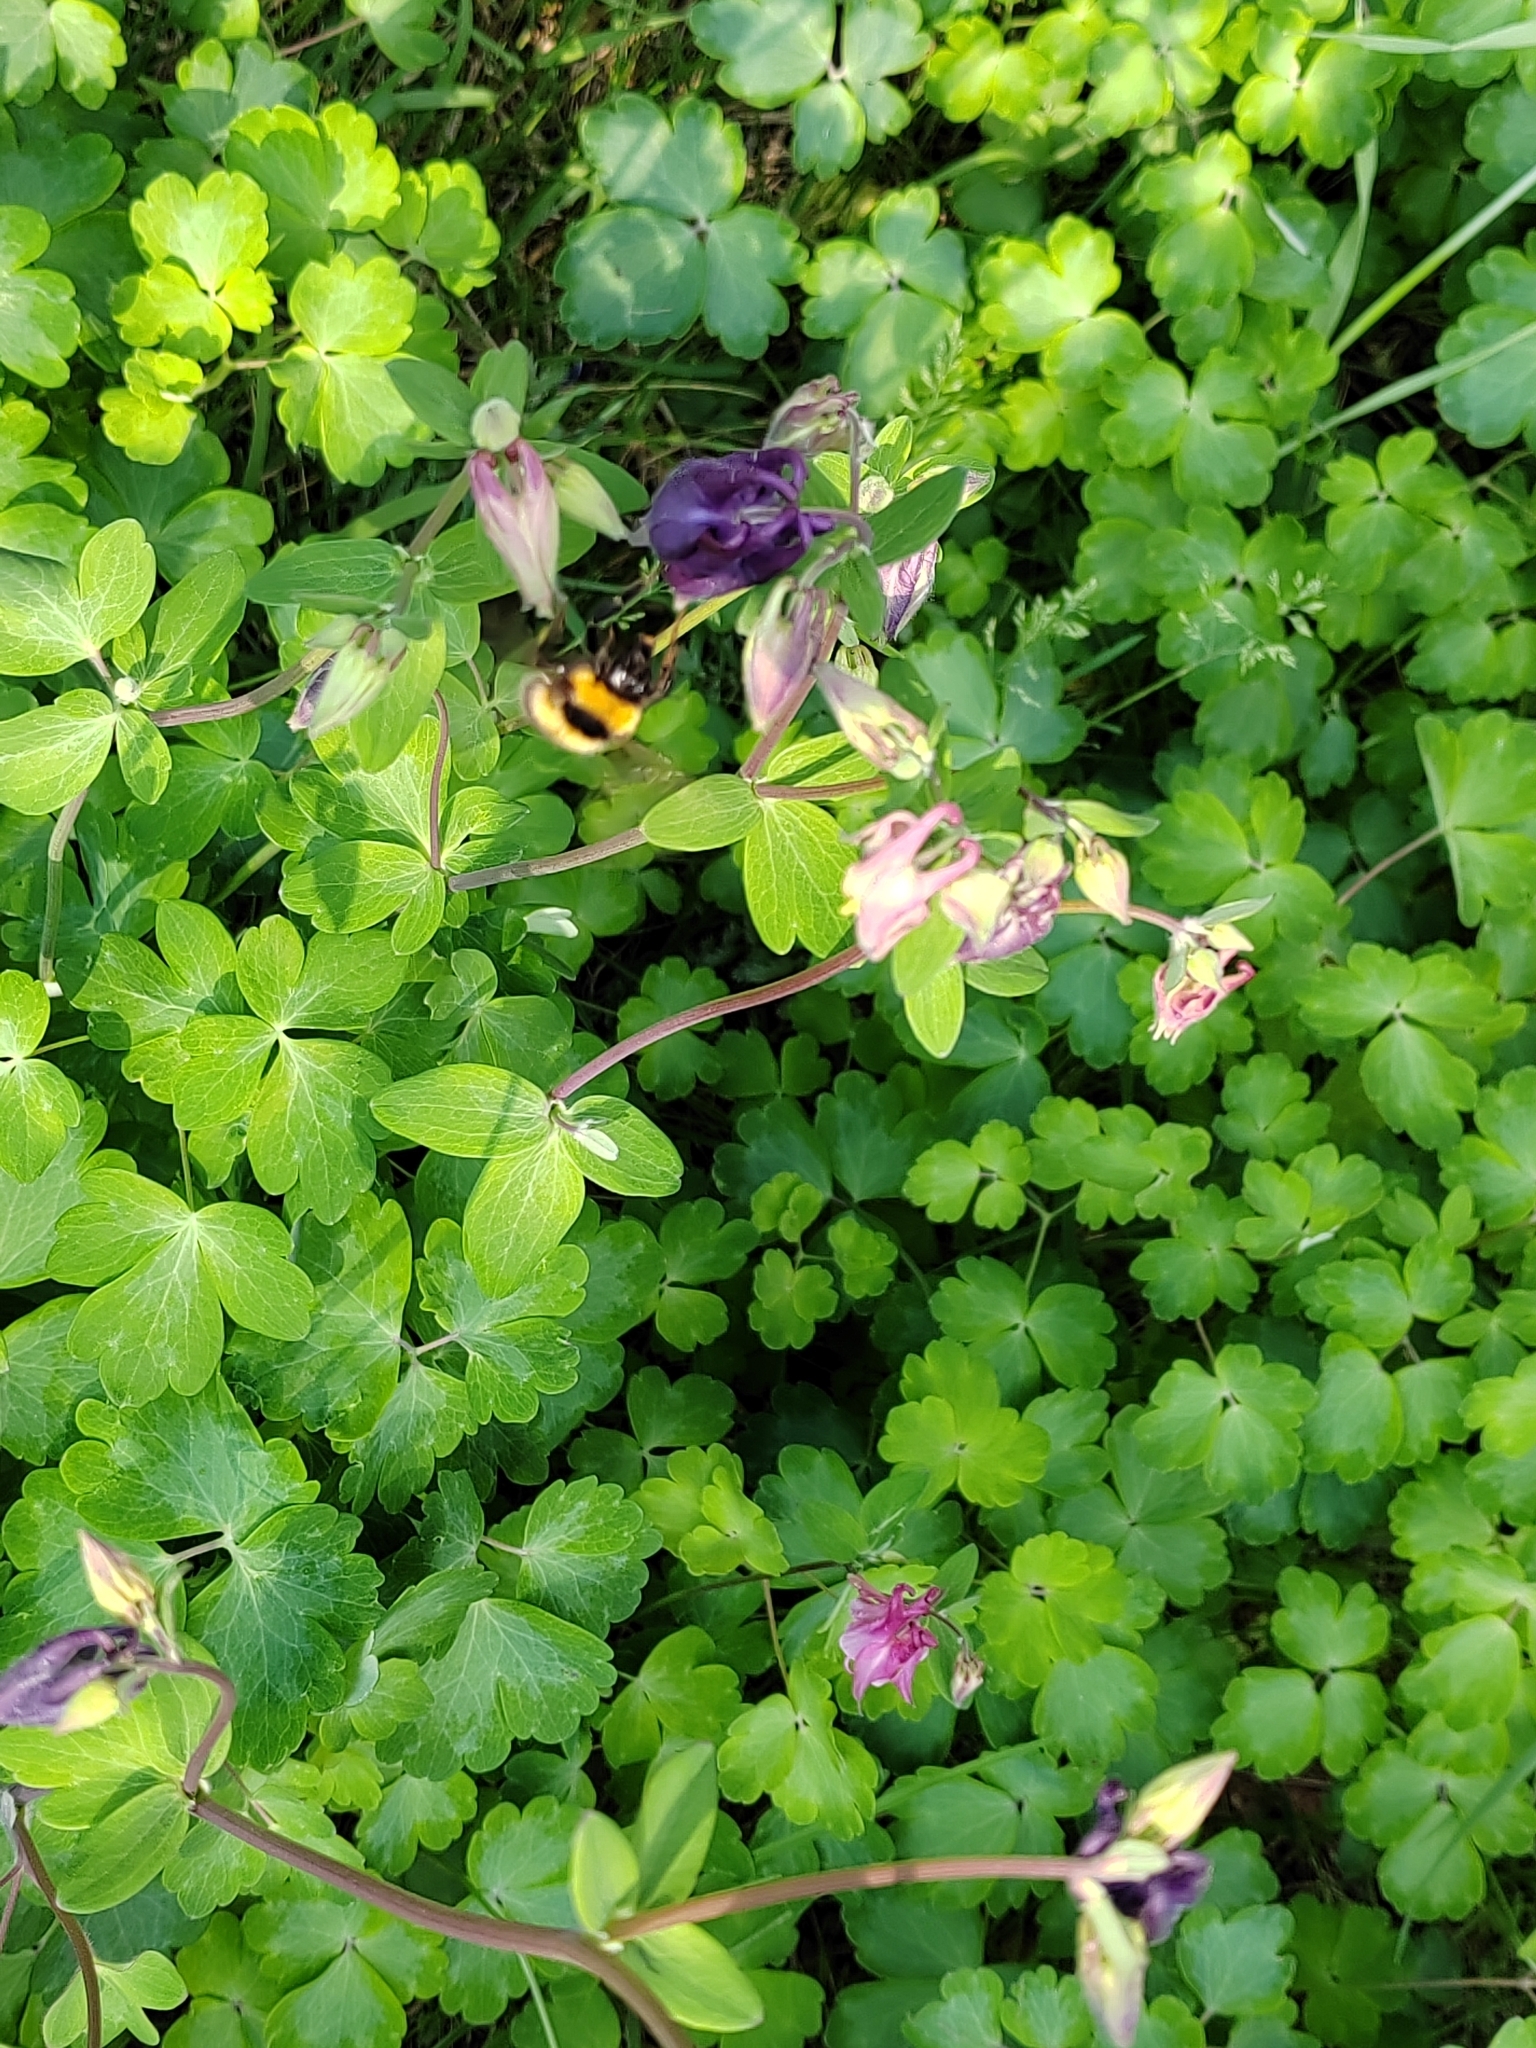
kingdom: Plantae
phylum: Tracheophyta
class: Magnoliopsida
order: Ranunculales
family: Ranunculaceae
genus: Aquilegia
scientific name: Aquilegia vulgaris
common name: Columbine
